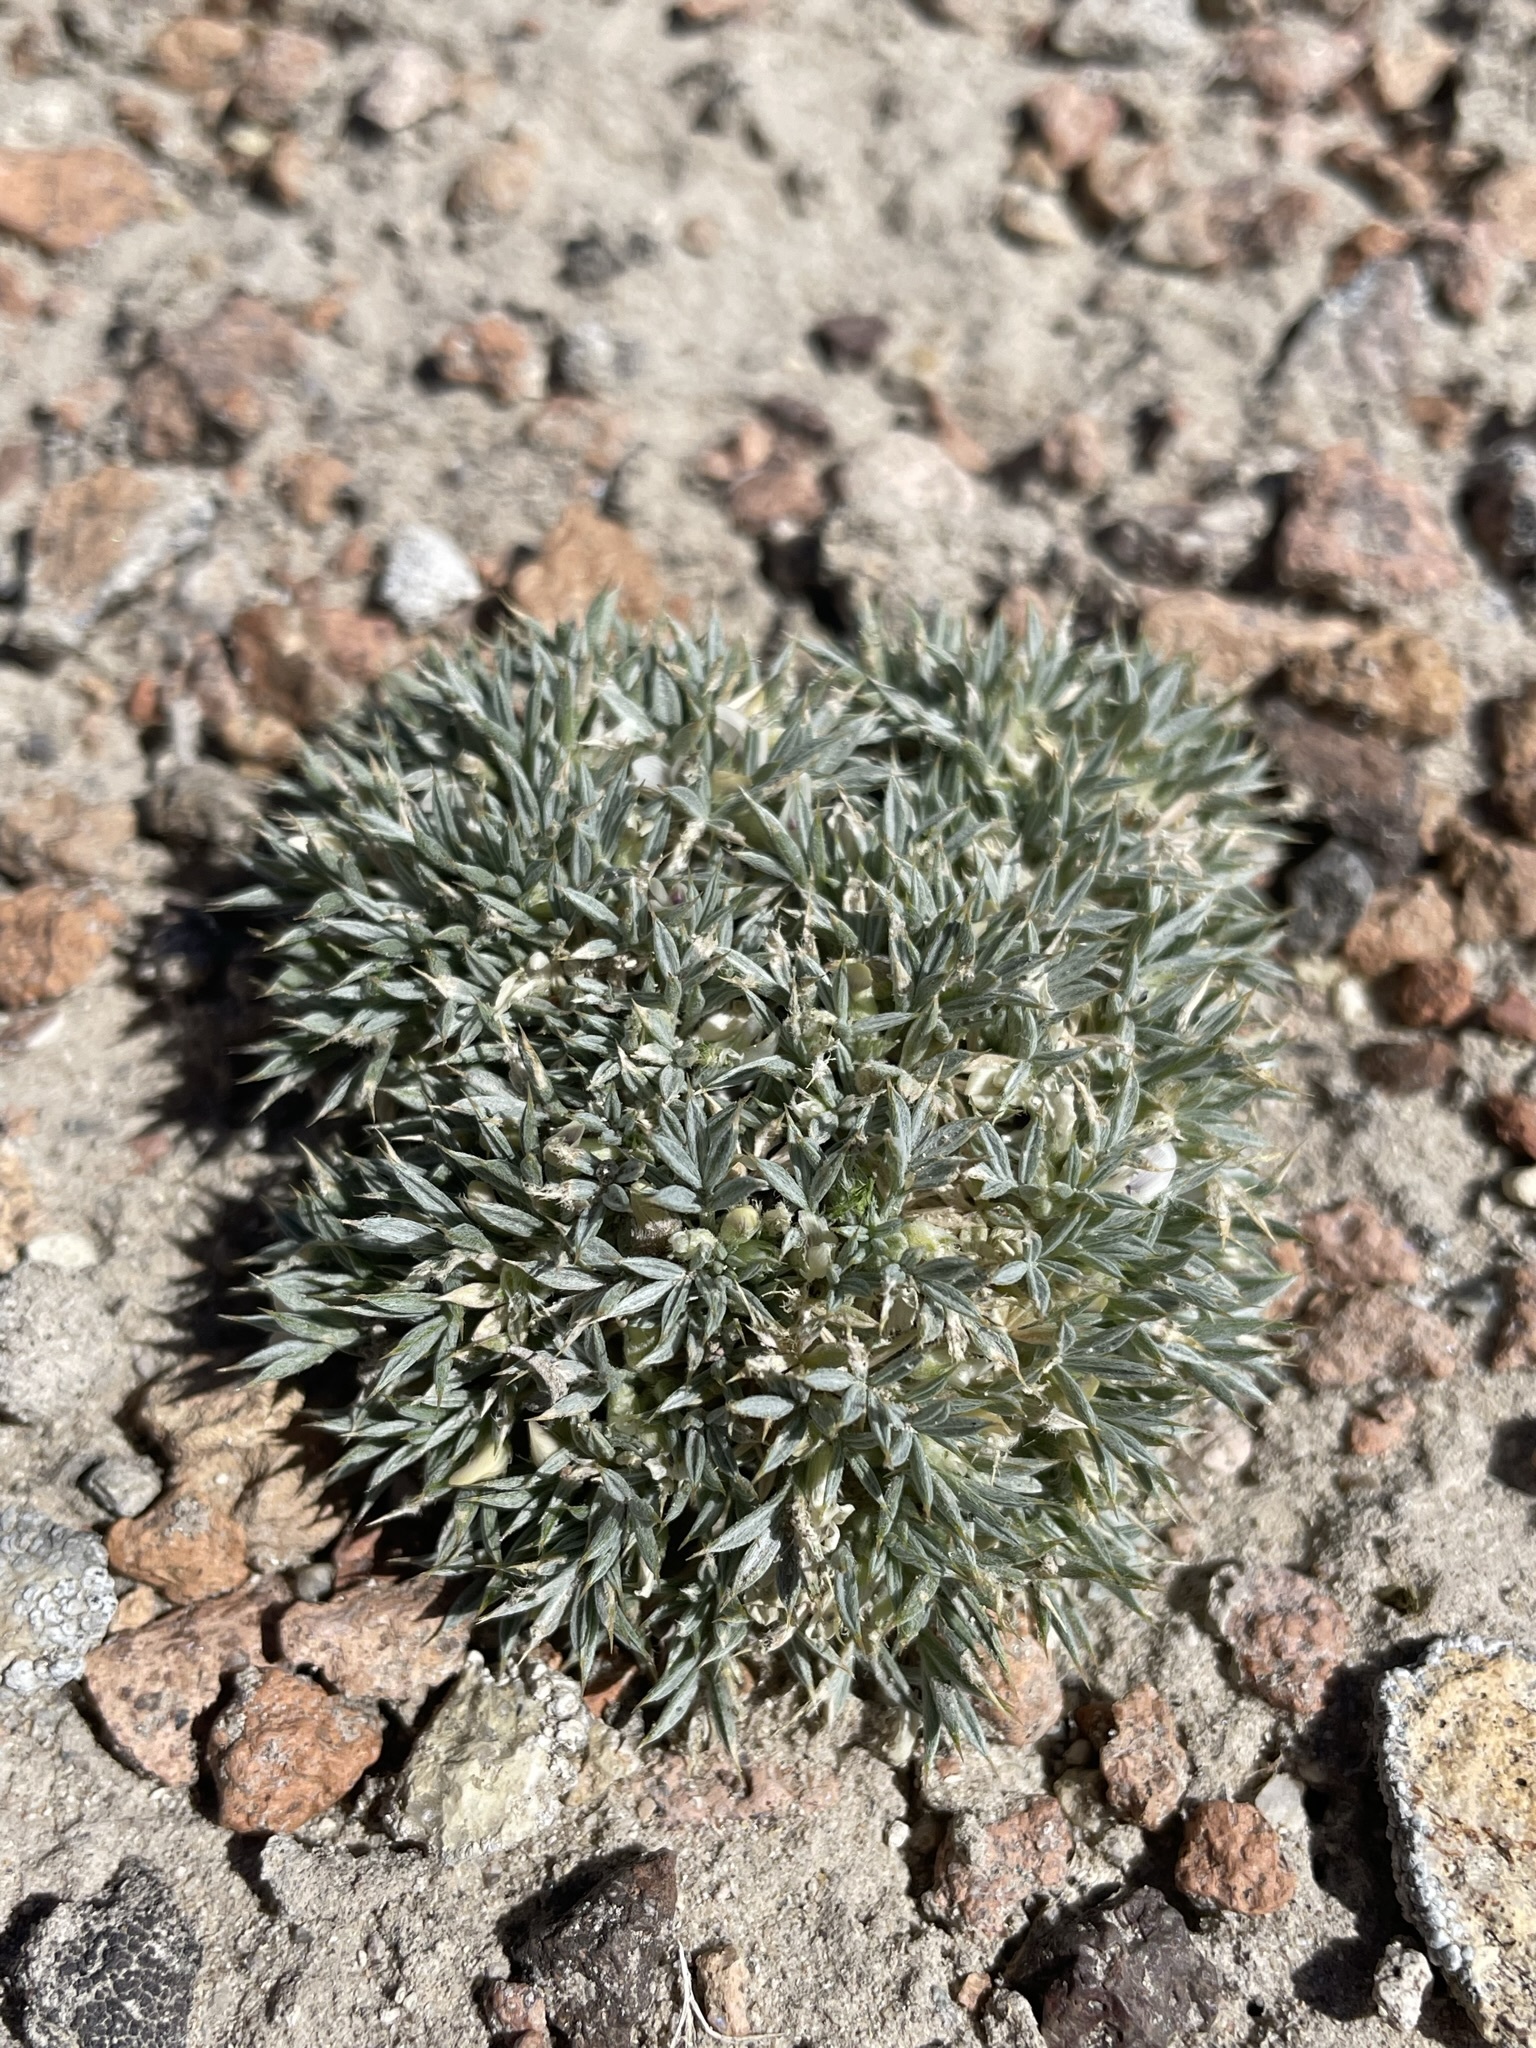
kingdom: Plantae
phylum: Tracheophyta
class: Magnoliopsida
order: Fabales
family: Fabaceae
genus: Astragalus
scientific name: Astragalus kentrophyta
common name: Prickly milk-vetch
